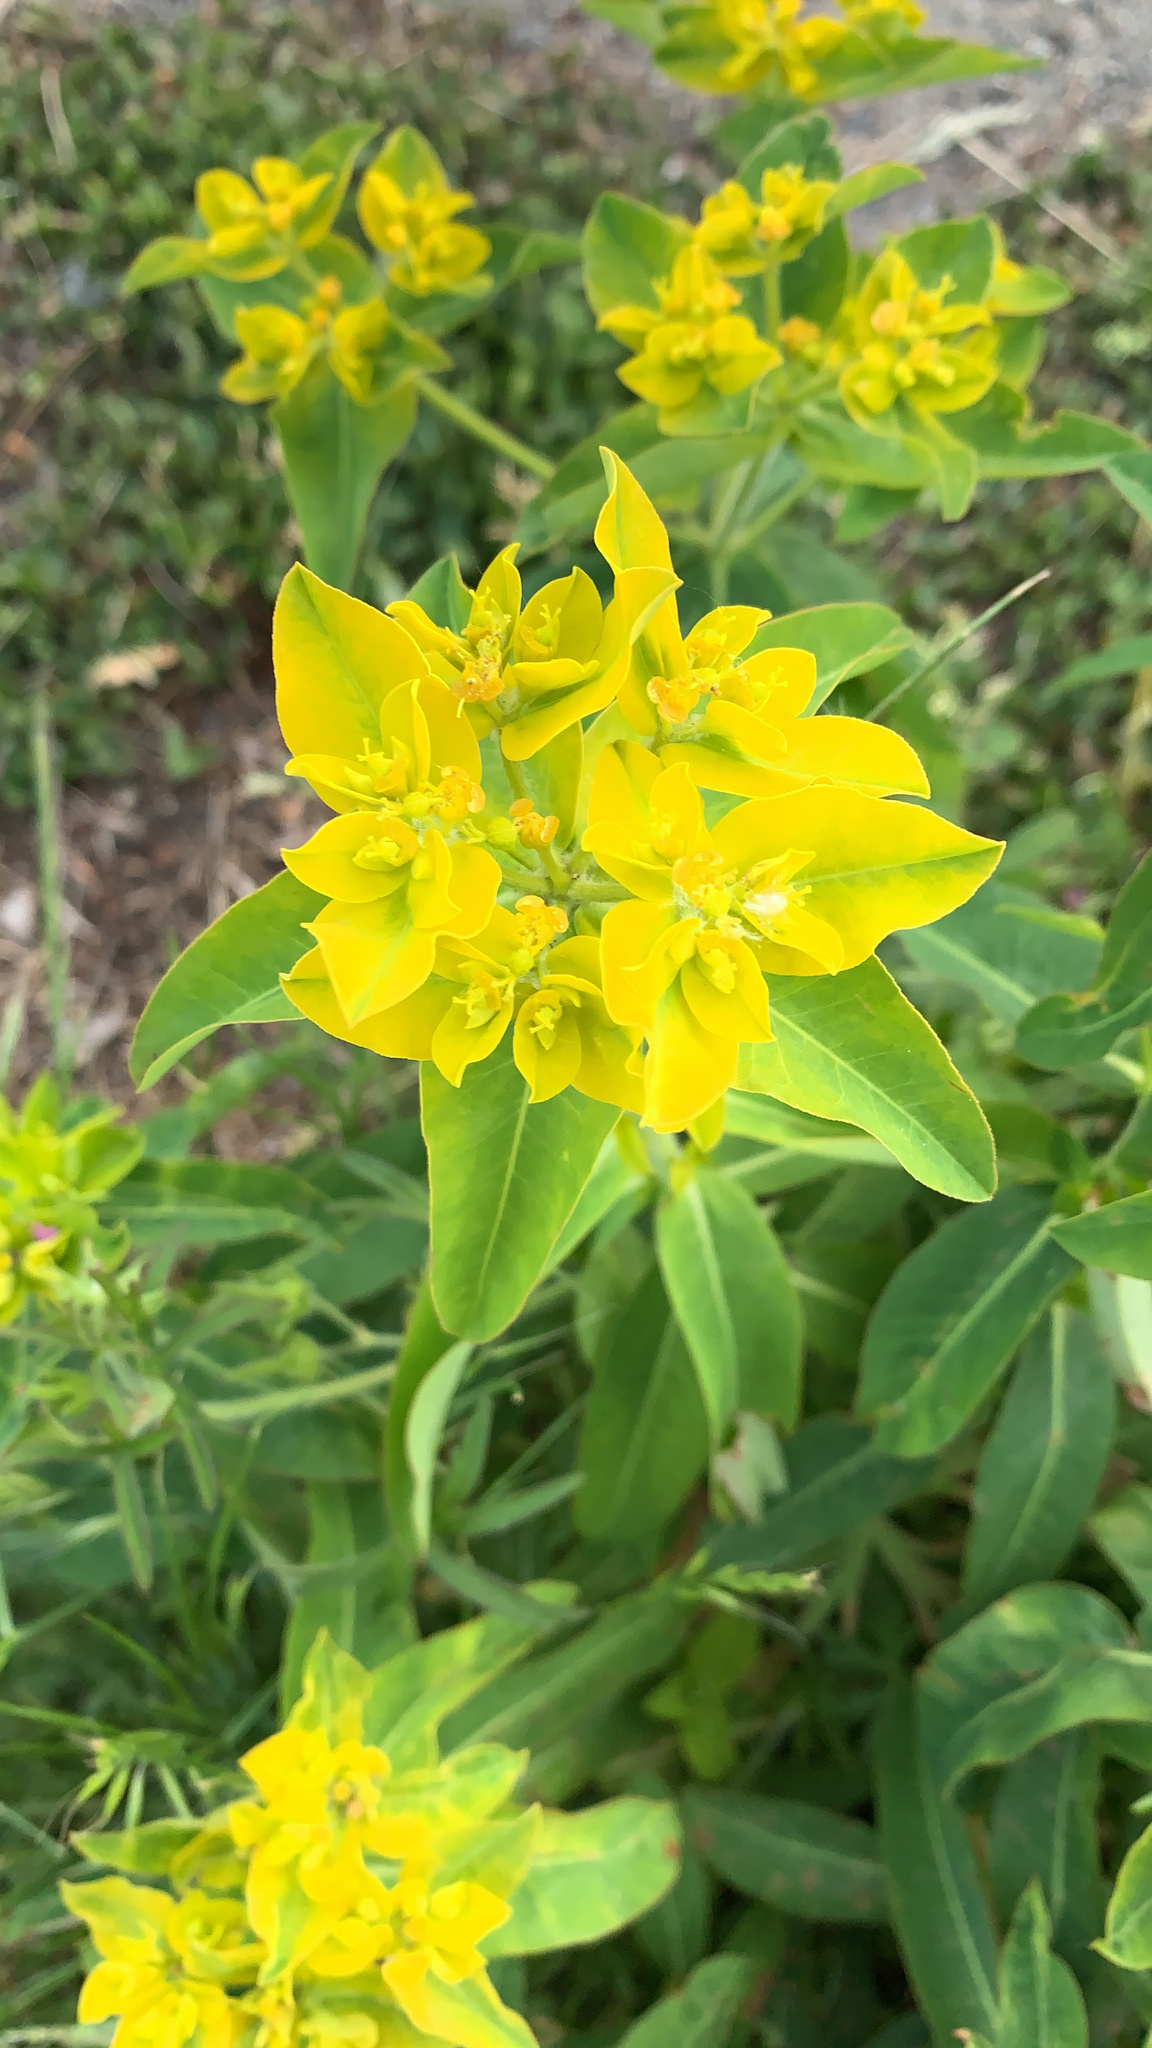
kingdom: Plantae
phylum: Tracheophyta
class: Magnoliopsida
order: Malpighiales
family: Euphorbiaceae
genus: Euphorbia
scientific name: Euphorbia oblongata
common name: Balkan spurge
